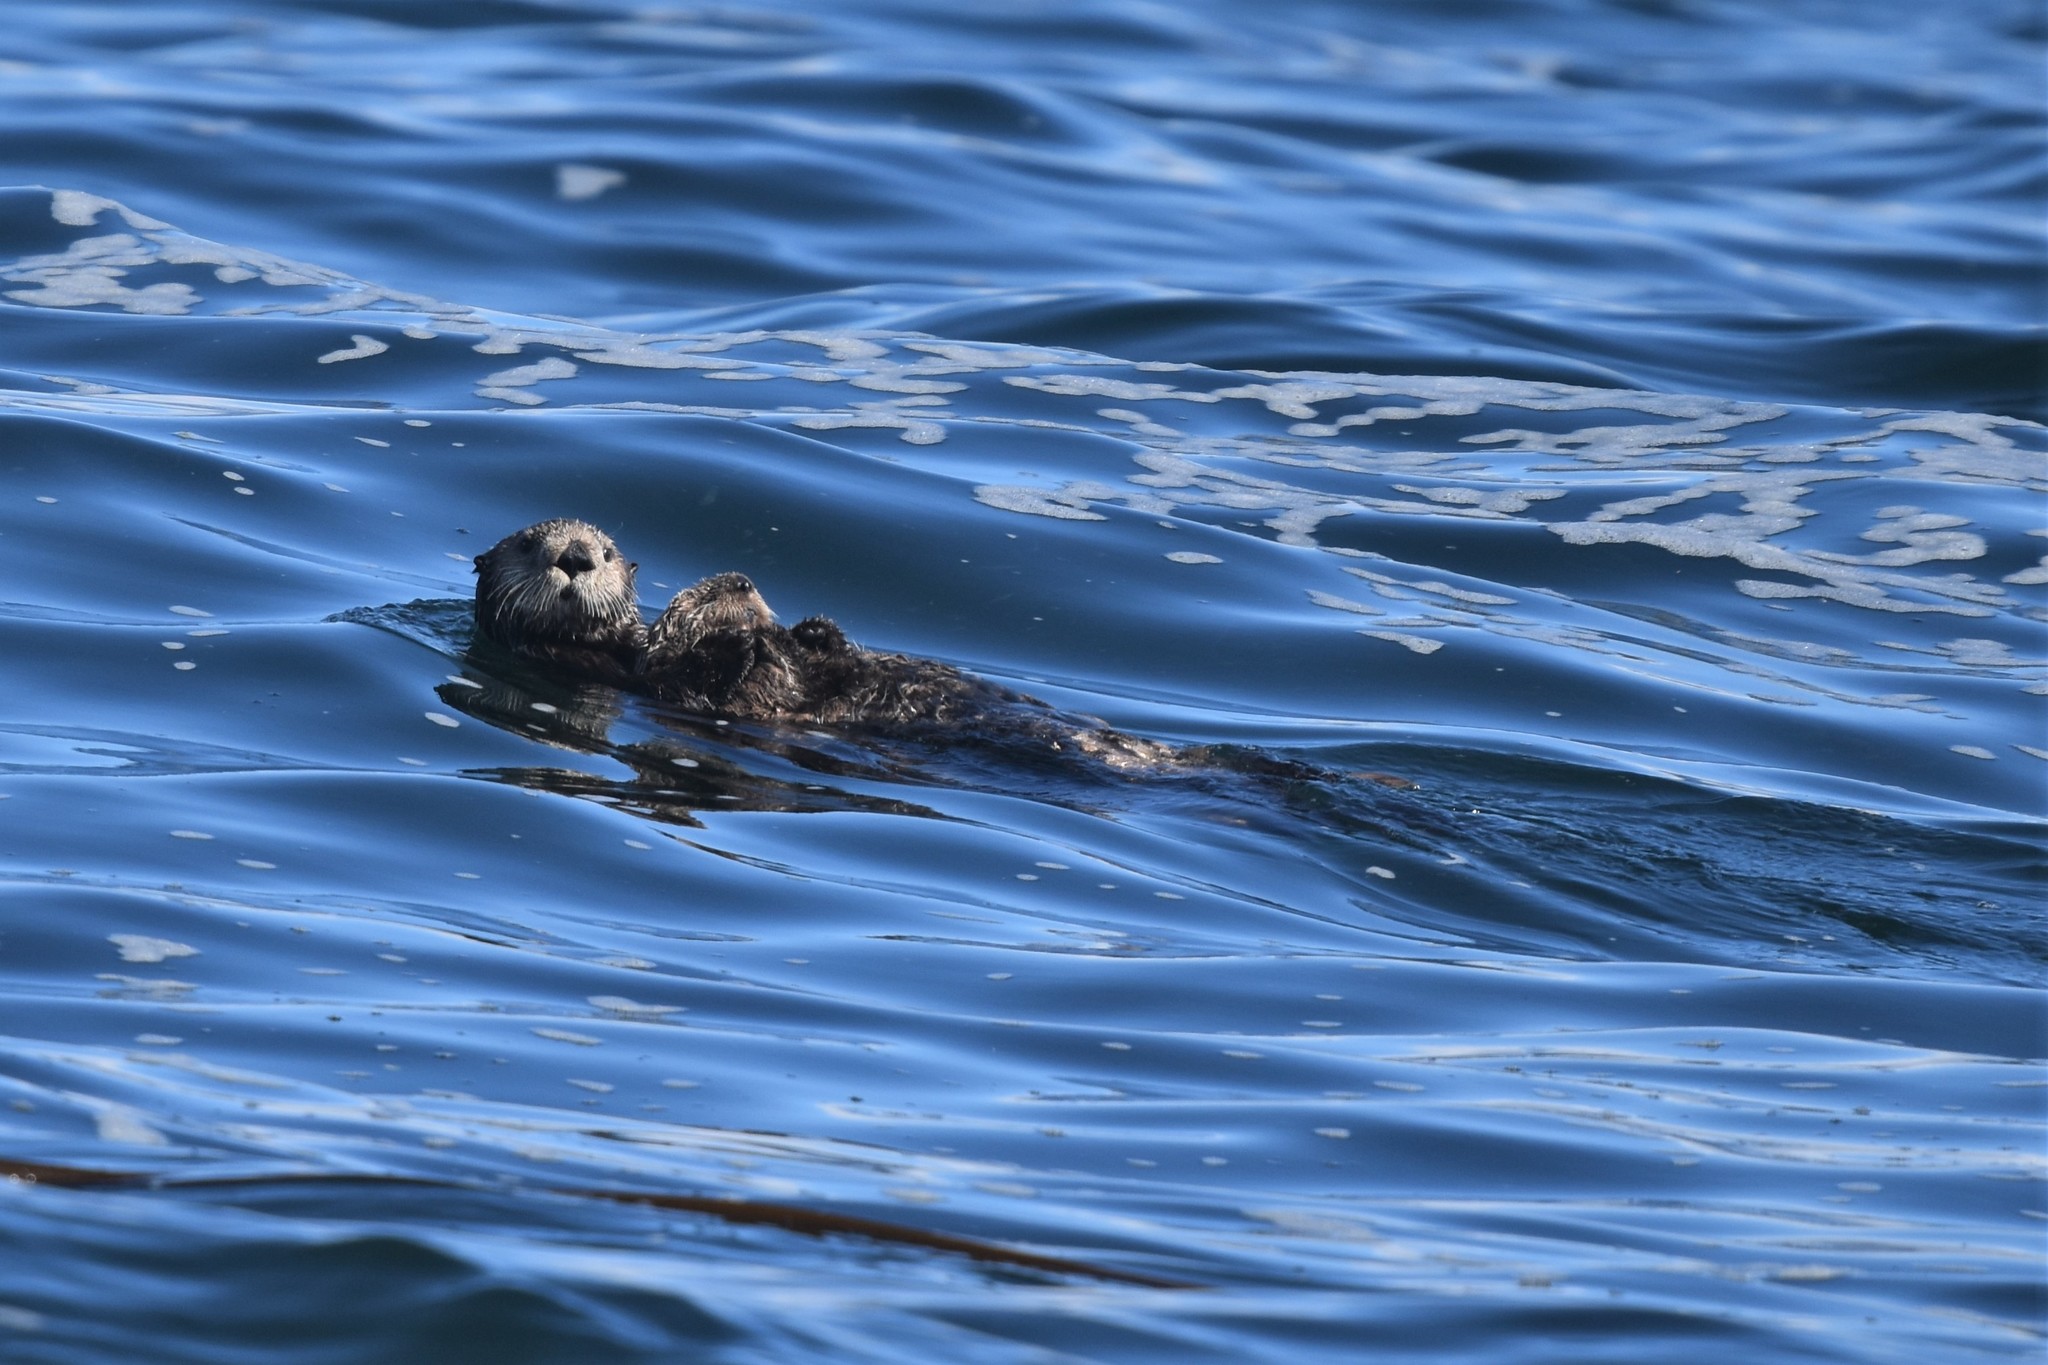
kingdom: Animalia
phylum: Chordata
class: Mammalia
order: Carnivora
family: Mustelidae
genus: Enhydra
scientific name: Enhydra lutris
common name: Sea otter
